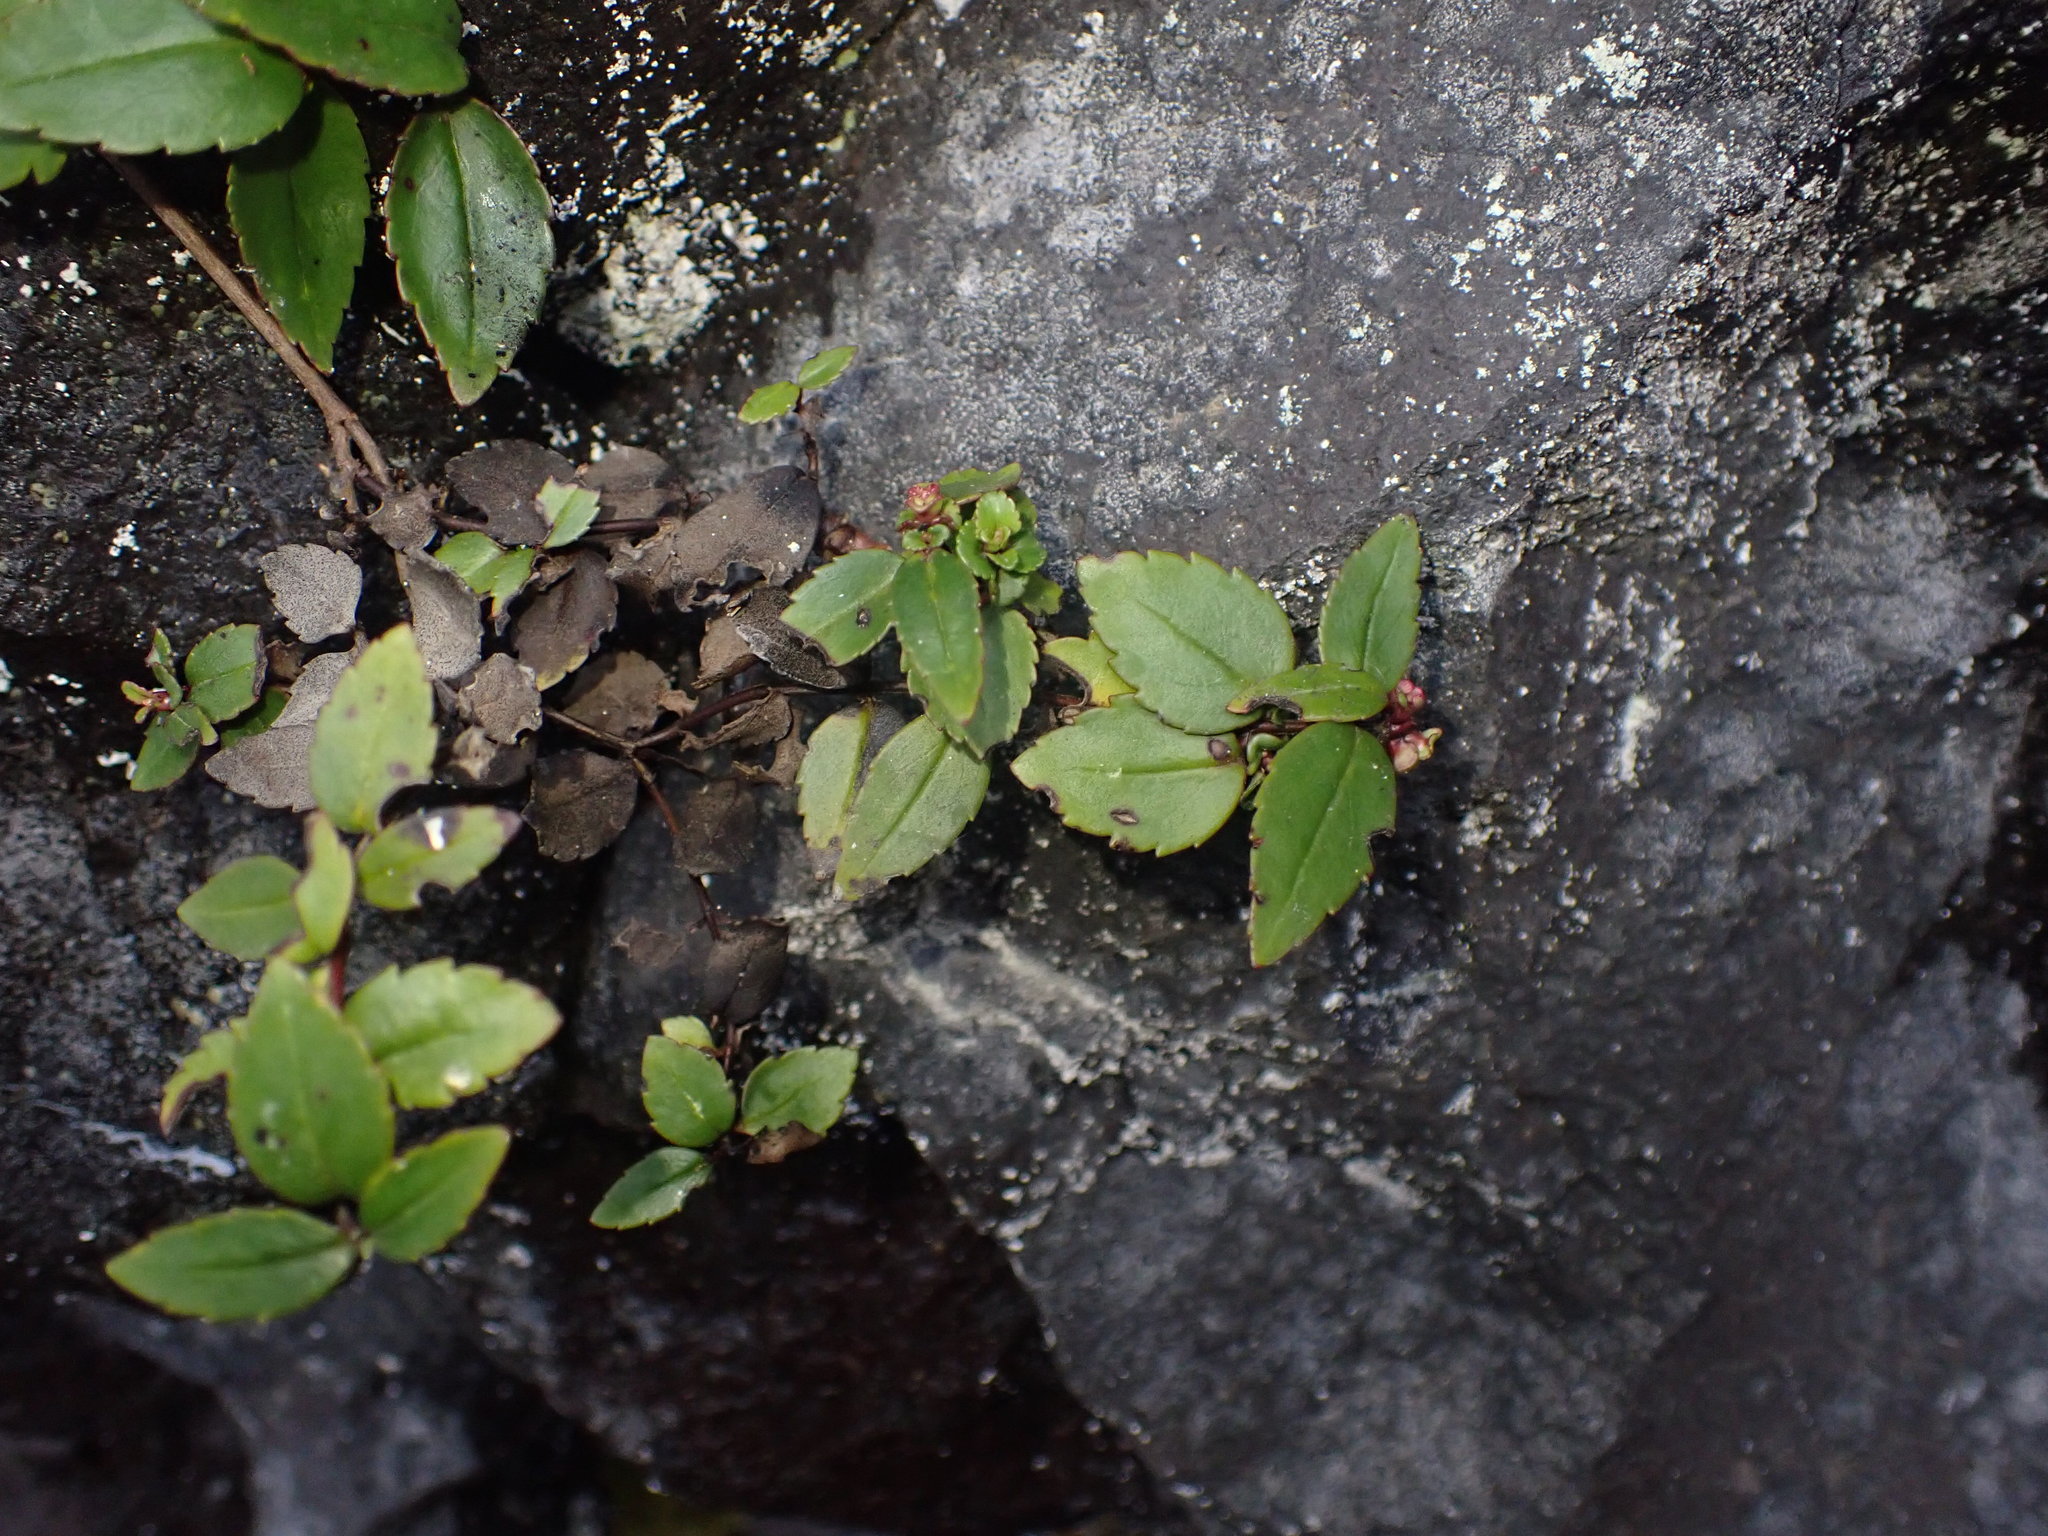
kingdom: Plantae
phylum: Tracheophyta
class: Magnoliopsida
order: Lamiales
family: Plantaginaceae
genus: Veronica
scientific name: Veronica lanceolata
